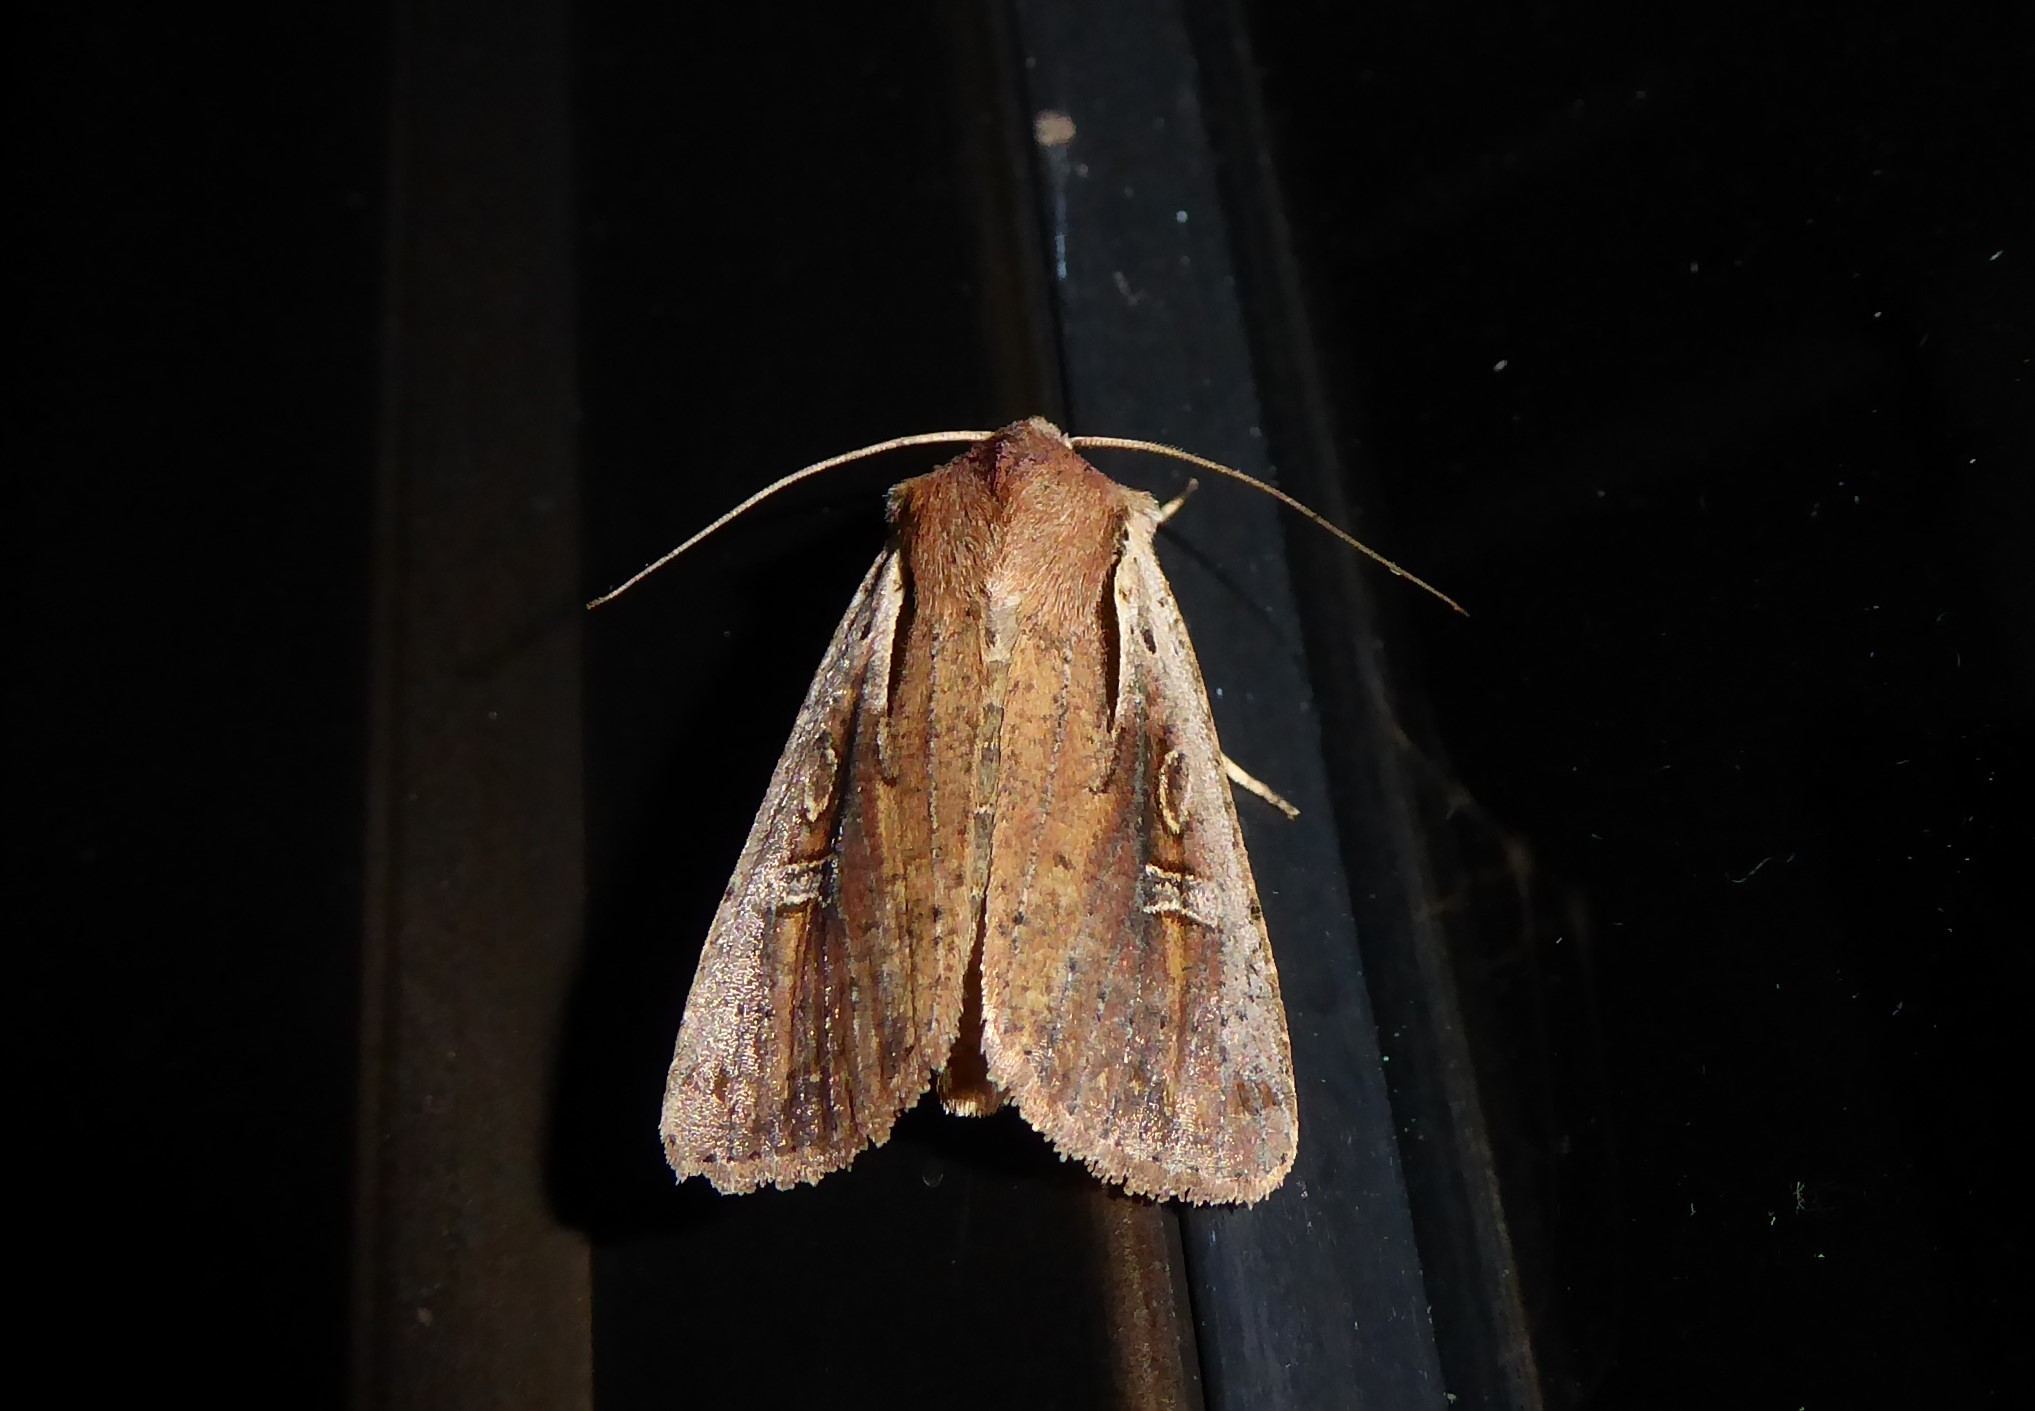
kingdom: Animalia
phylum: Arthropoda
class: Insecta
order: Lepidoptera
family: Noctuidae
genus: Ichneutica
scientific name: Ichneutica atristriga
